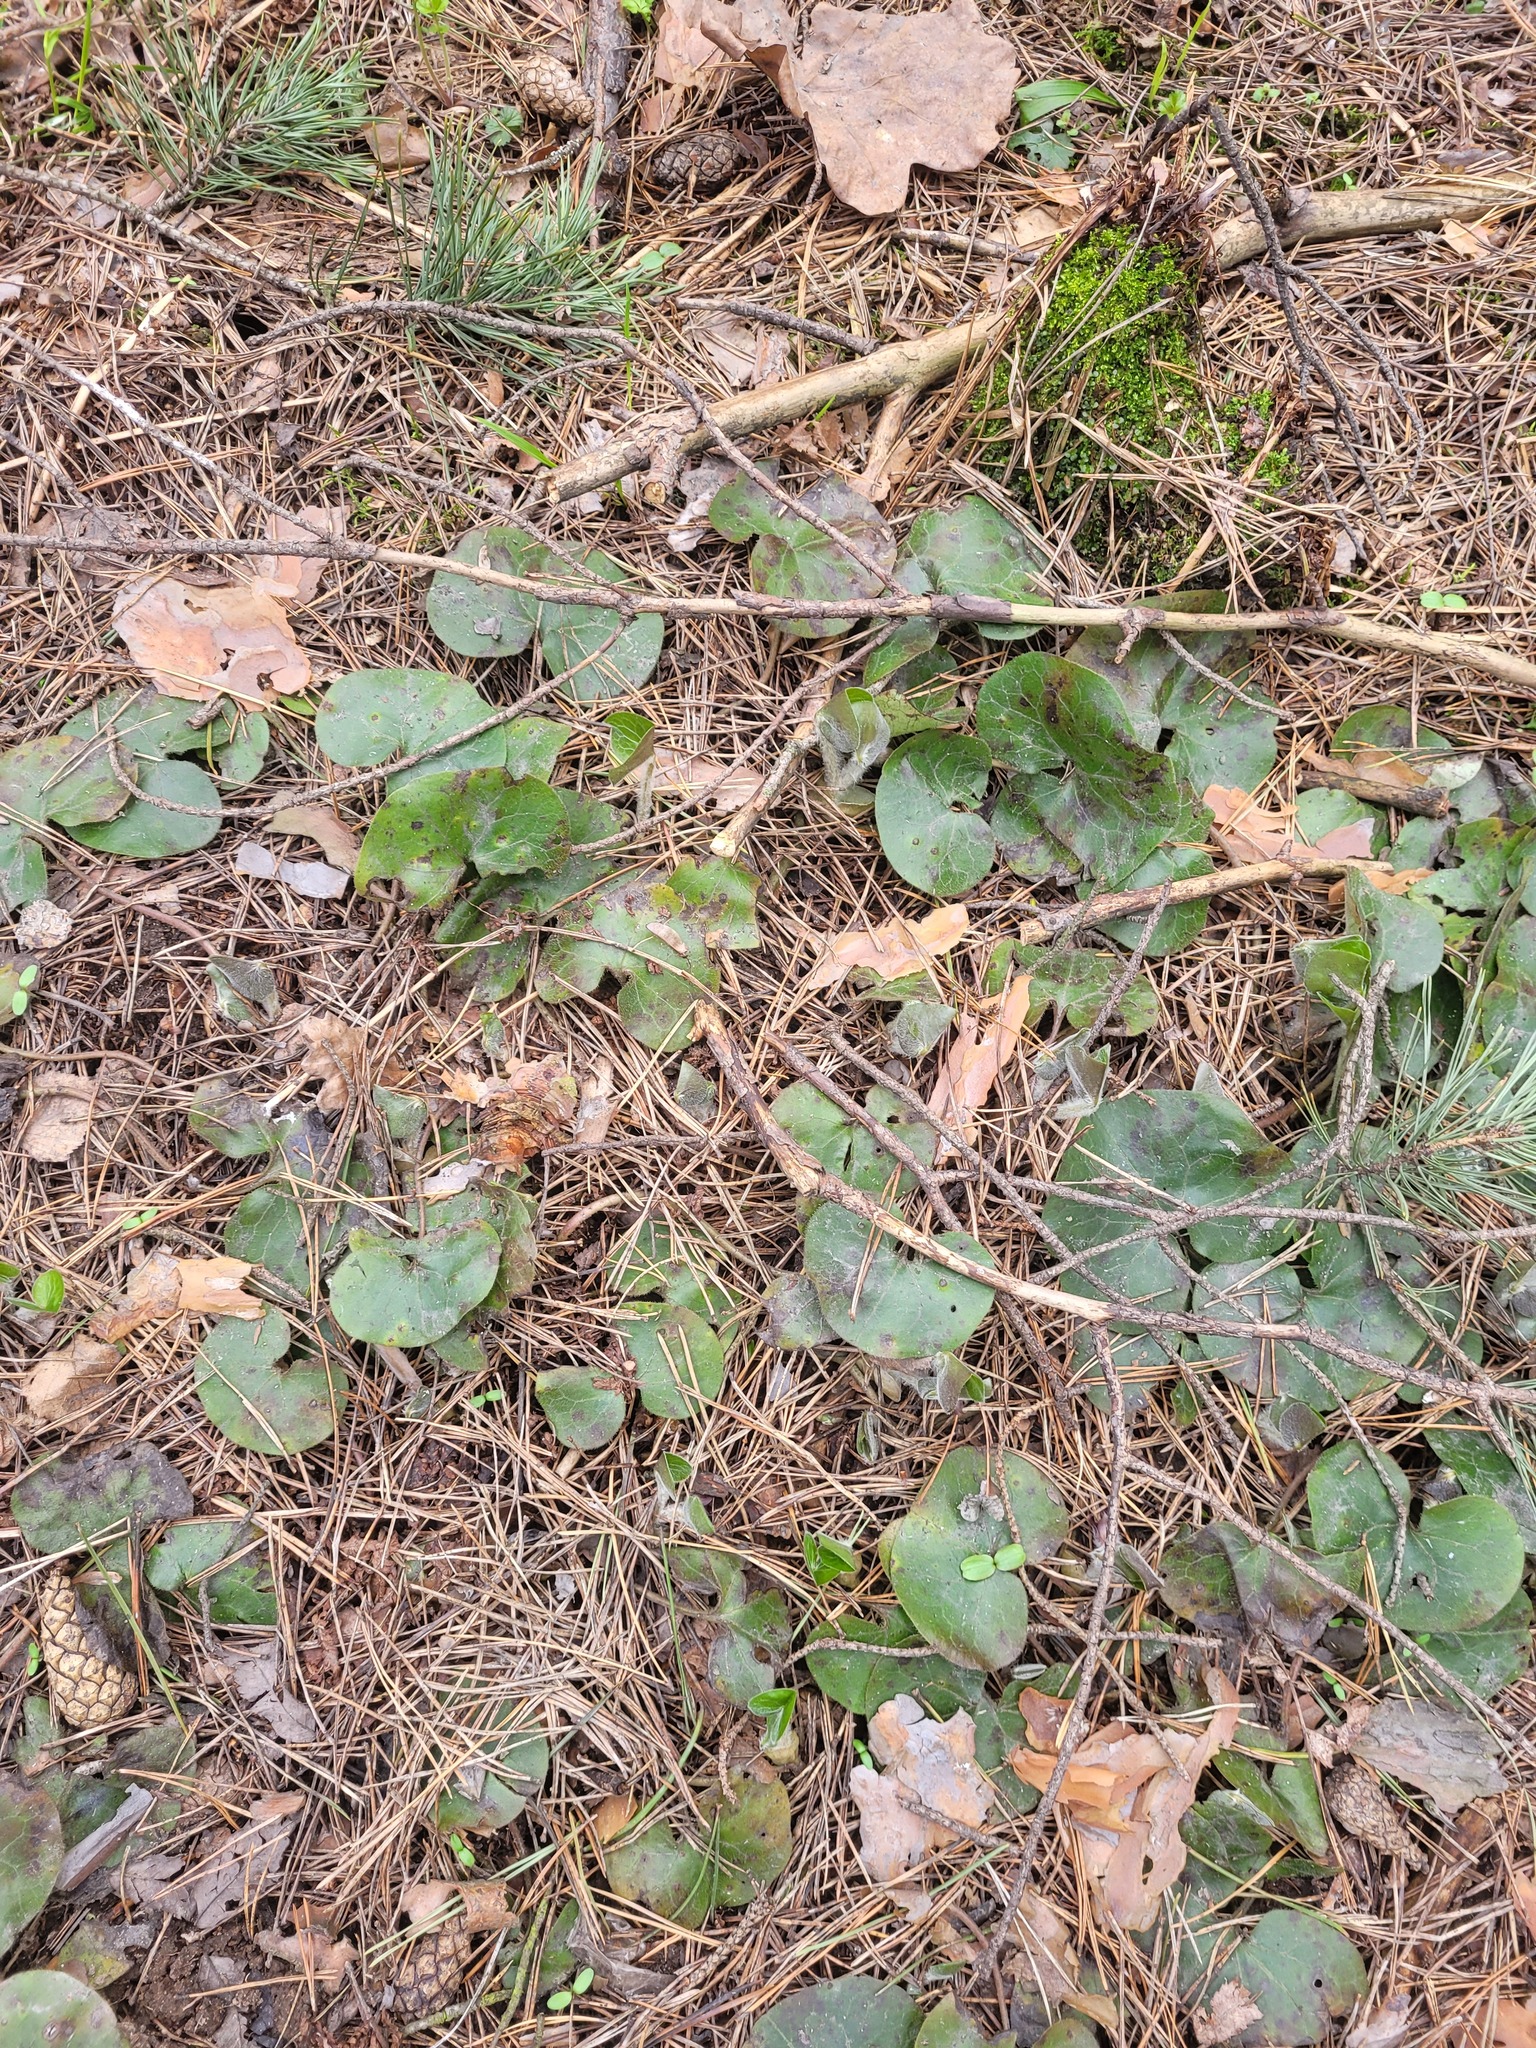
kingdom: Plantae
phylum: Tracheophyta
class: Magnoliopsida
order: Piperales
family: Aristolochiaceae
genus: Asarum
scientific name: Asarum europaeum
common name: Asarabacca
